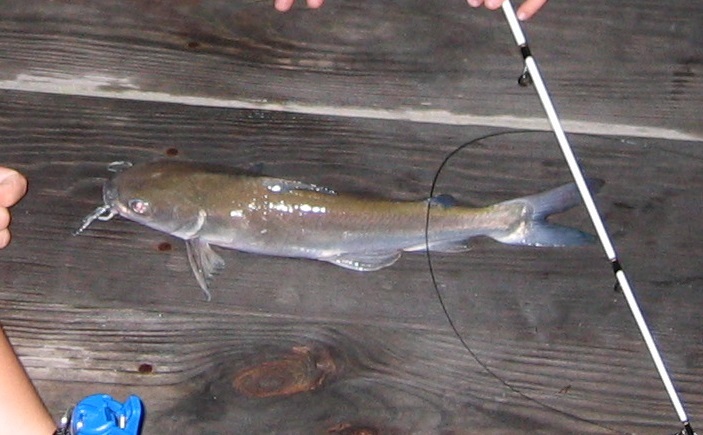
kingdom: Animalia
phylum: Chordata
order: Siluriformes
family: Ariidae
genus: Ariopsis
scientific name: Ariopsis felis
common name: Hardhead catfish
